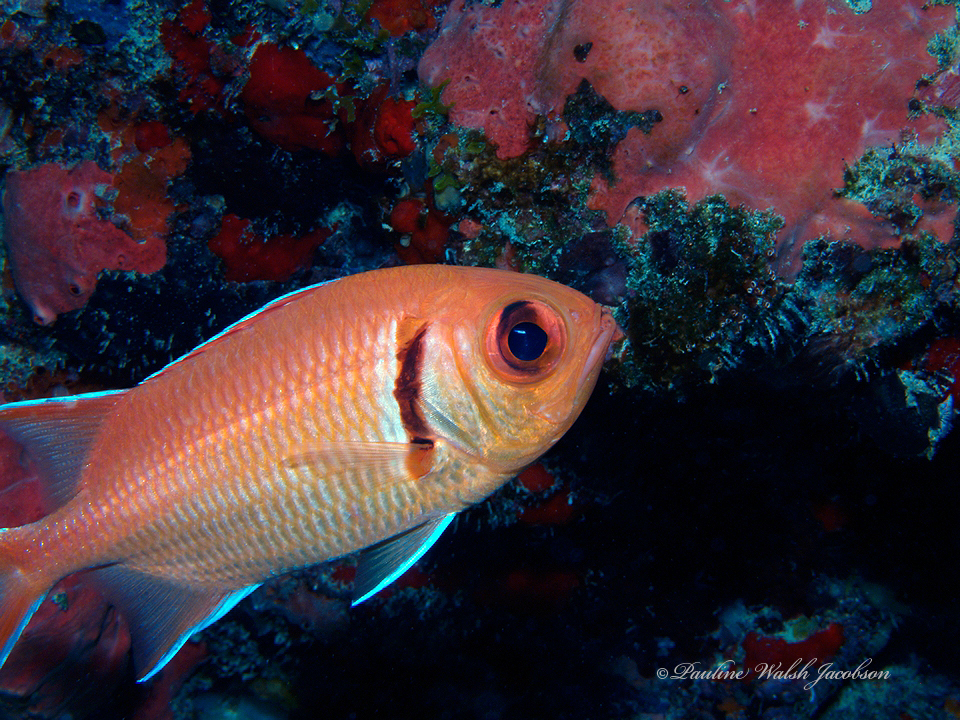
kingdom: Animalia
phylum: Chordata
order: Beryciformes
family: Holocentridae
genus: Myripristis
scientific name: Myripristis jacobus
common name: Blackbar soldierfish
